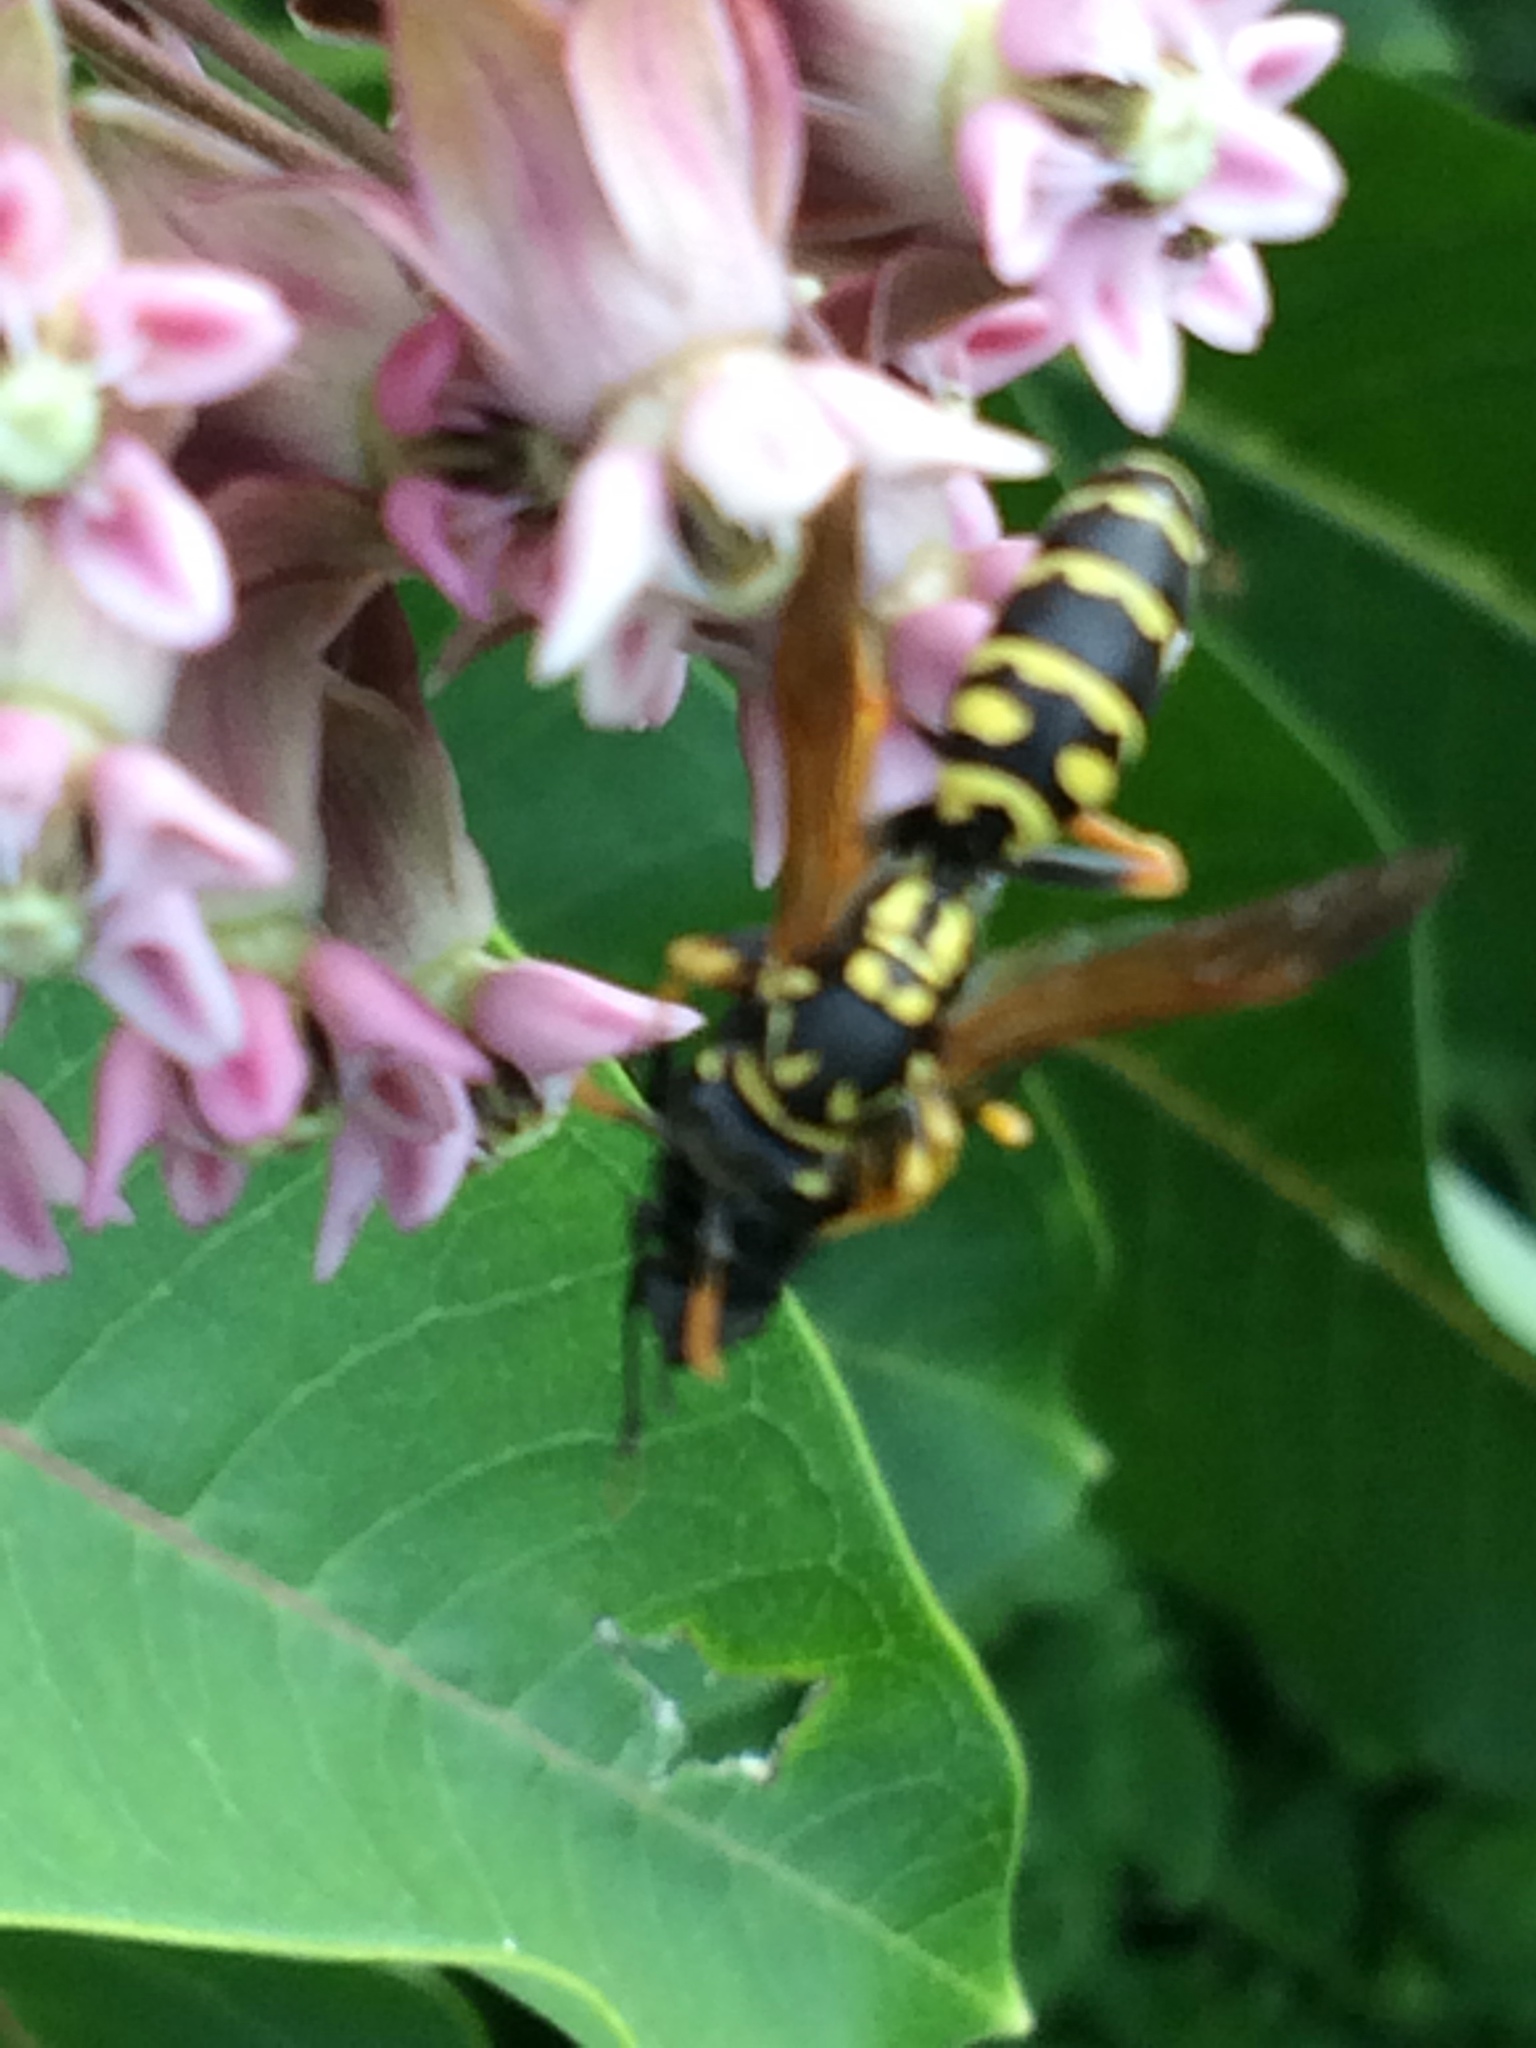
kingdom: Animalia
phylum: Arthropoda
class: Insecta
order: Hymenoptera
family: Eumenidae
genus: Polistes
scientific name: Polistes dominula
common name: Paper wasp
